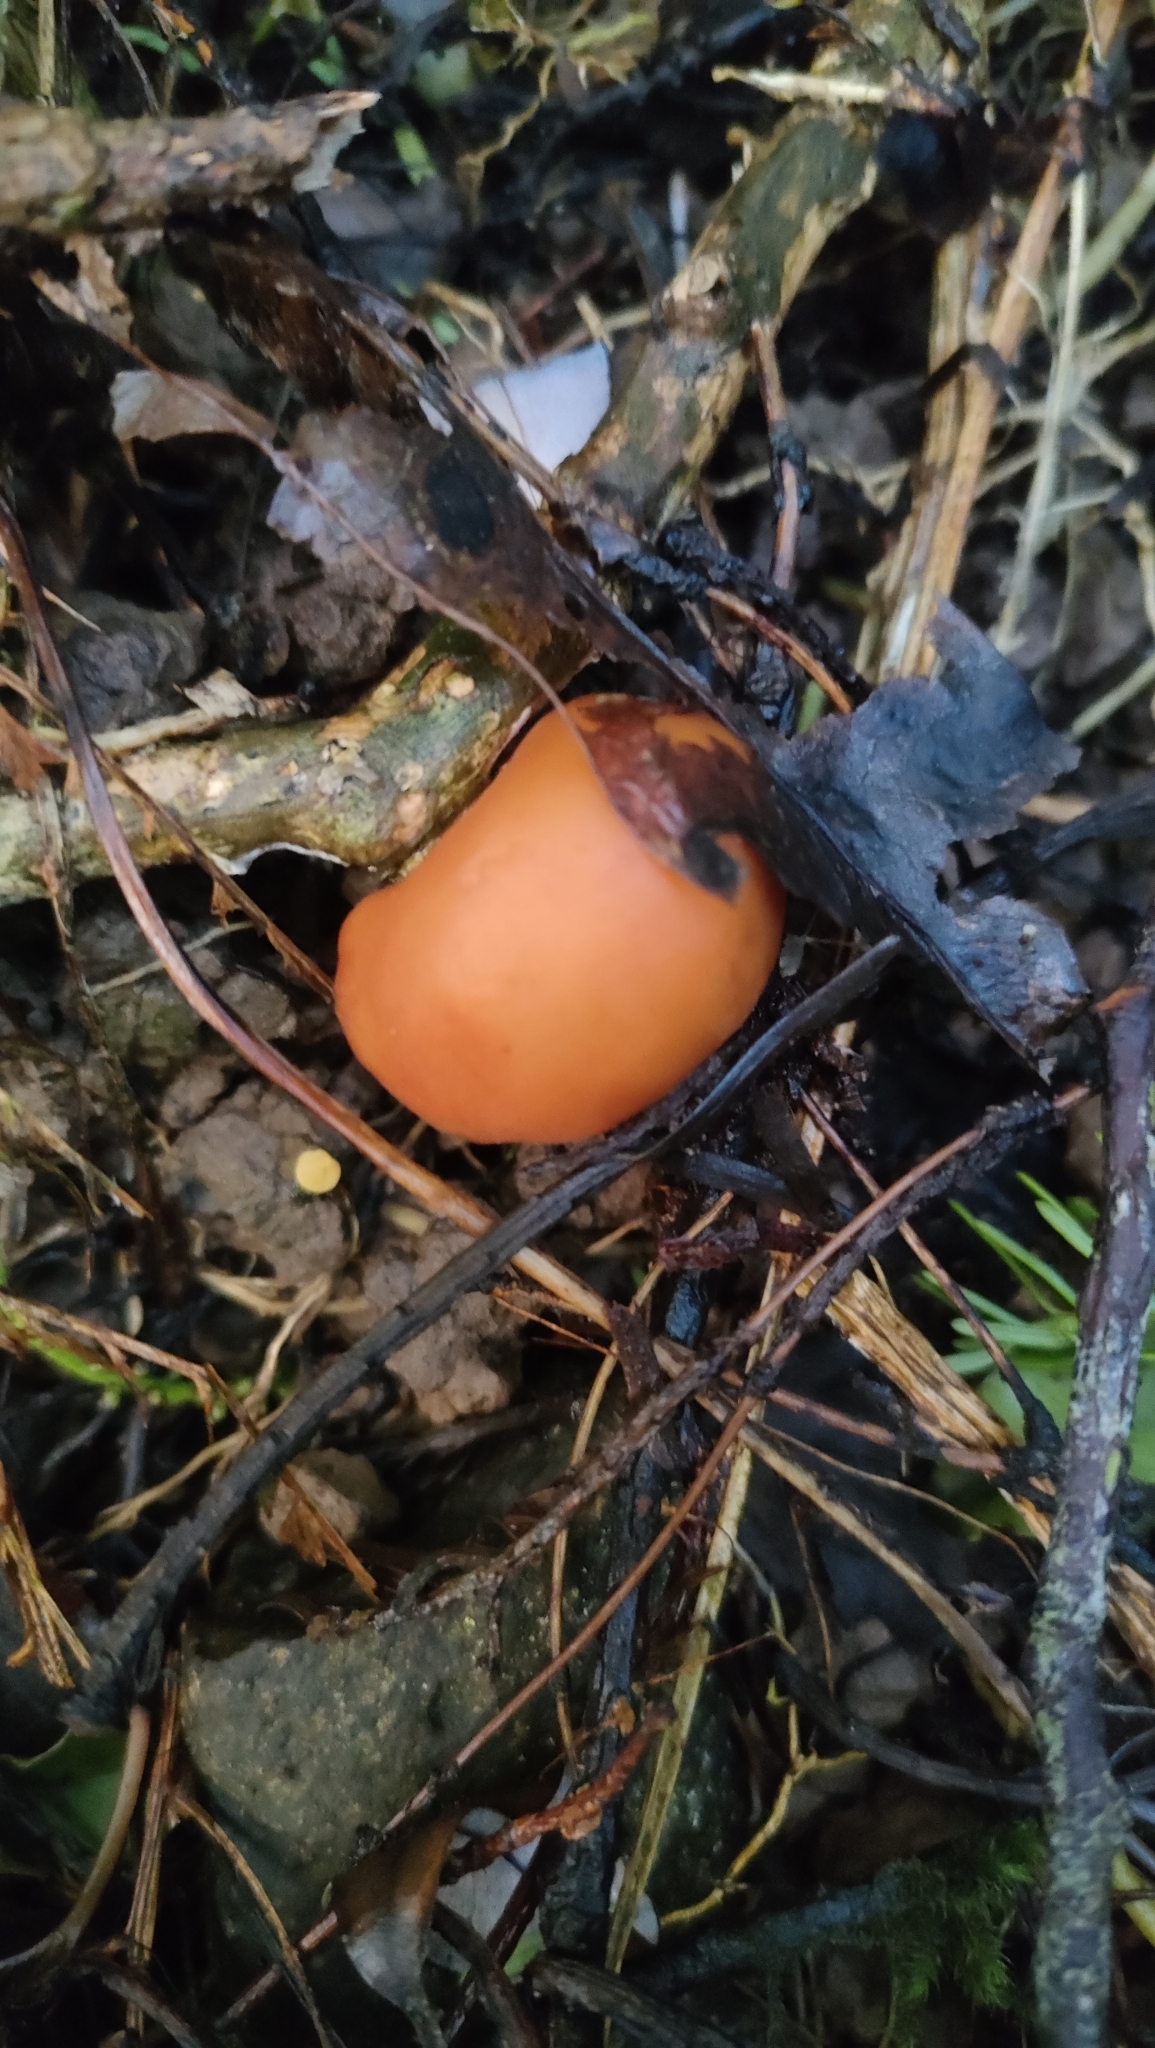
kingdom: Fungi
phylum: Basidiomycota
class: Agaricomycetes
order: Agaricales
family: Macrocystidiaceae
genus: Macrocystidia
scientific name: Macrocystidia reducta
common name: The fishy pouch
